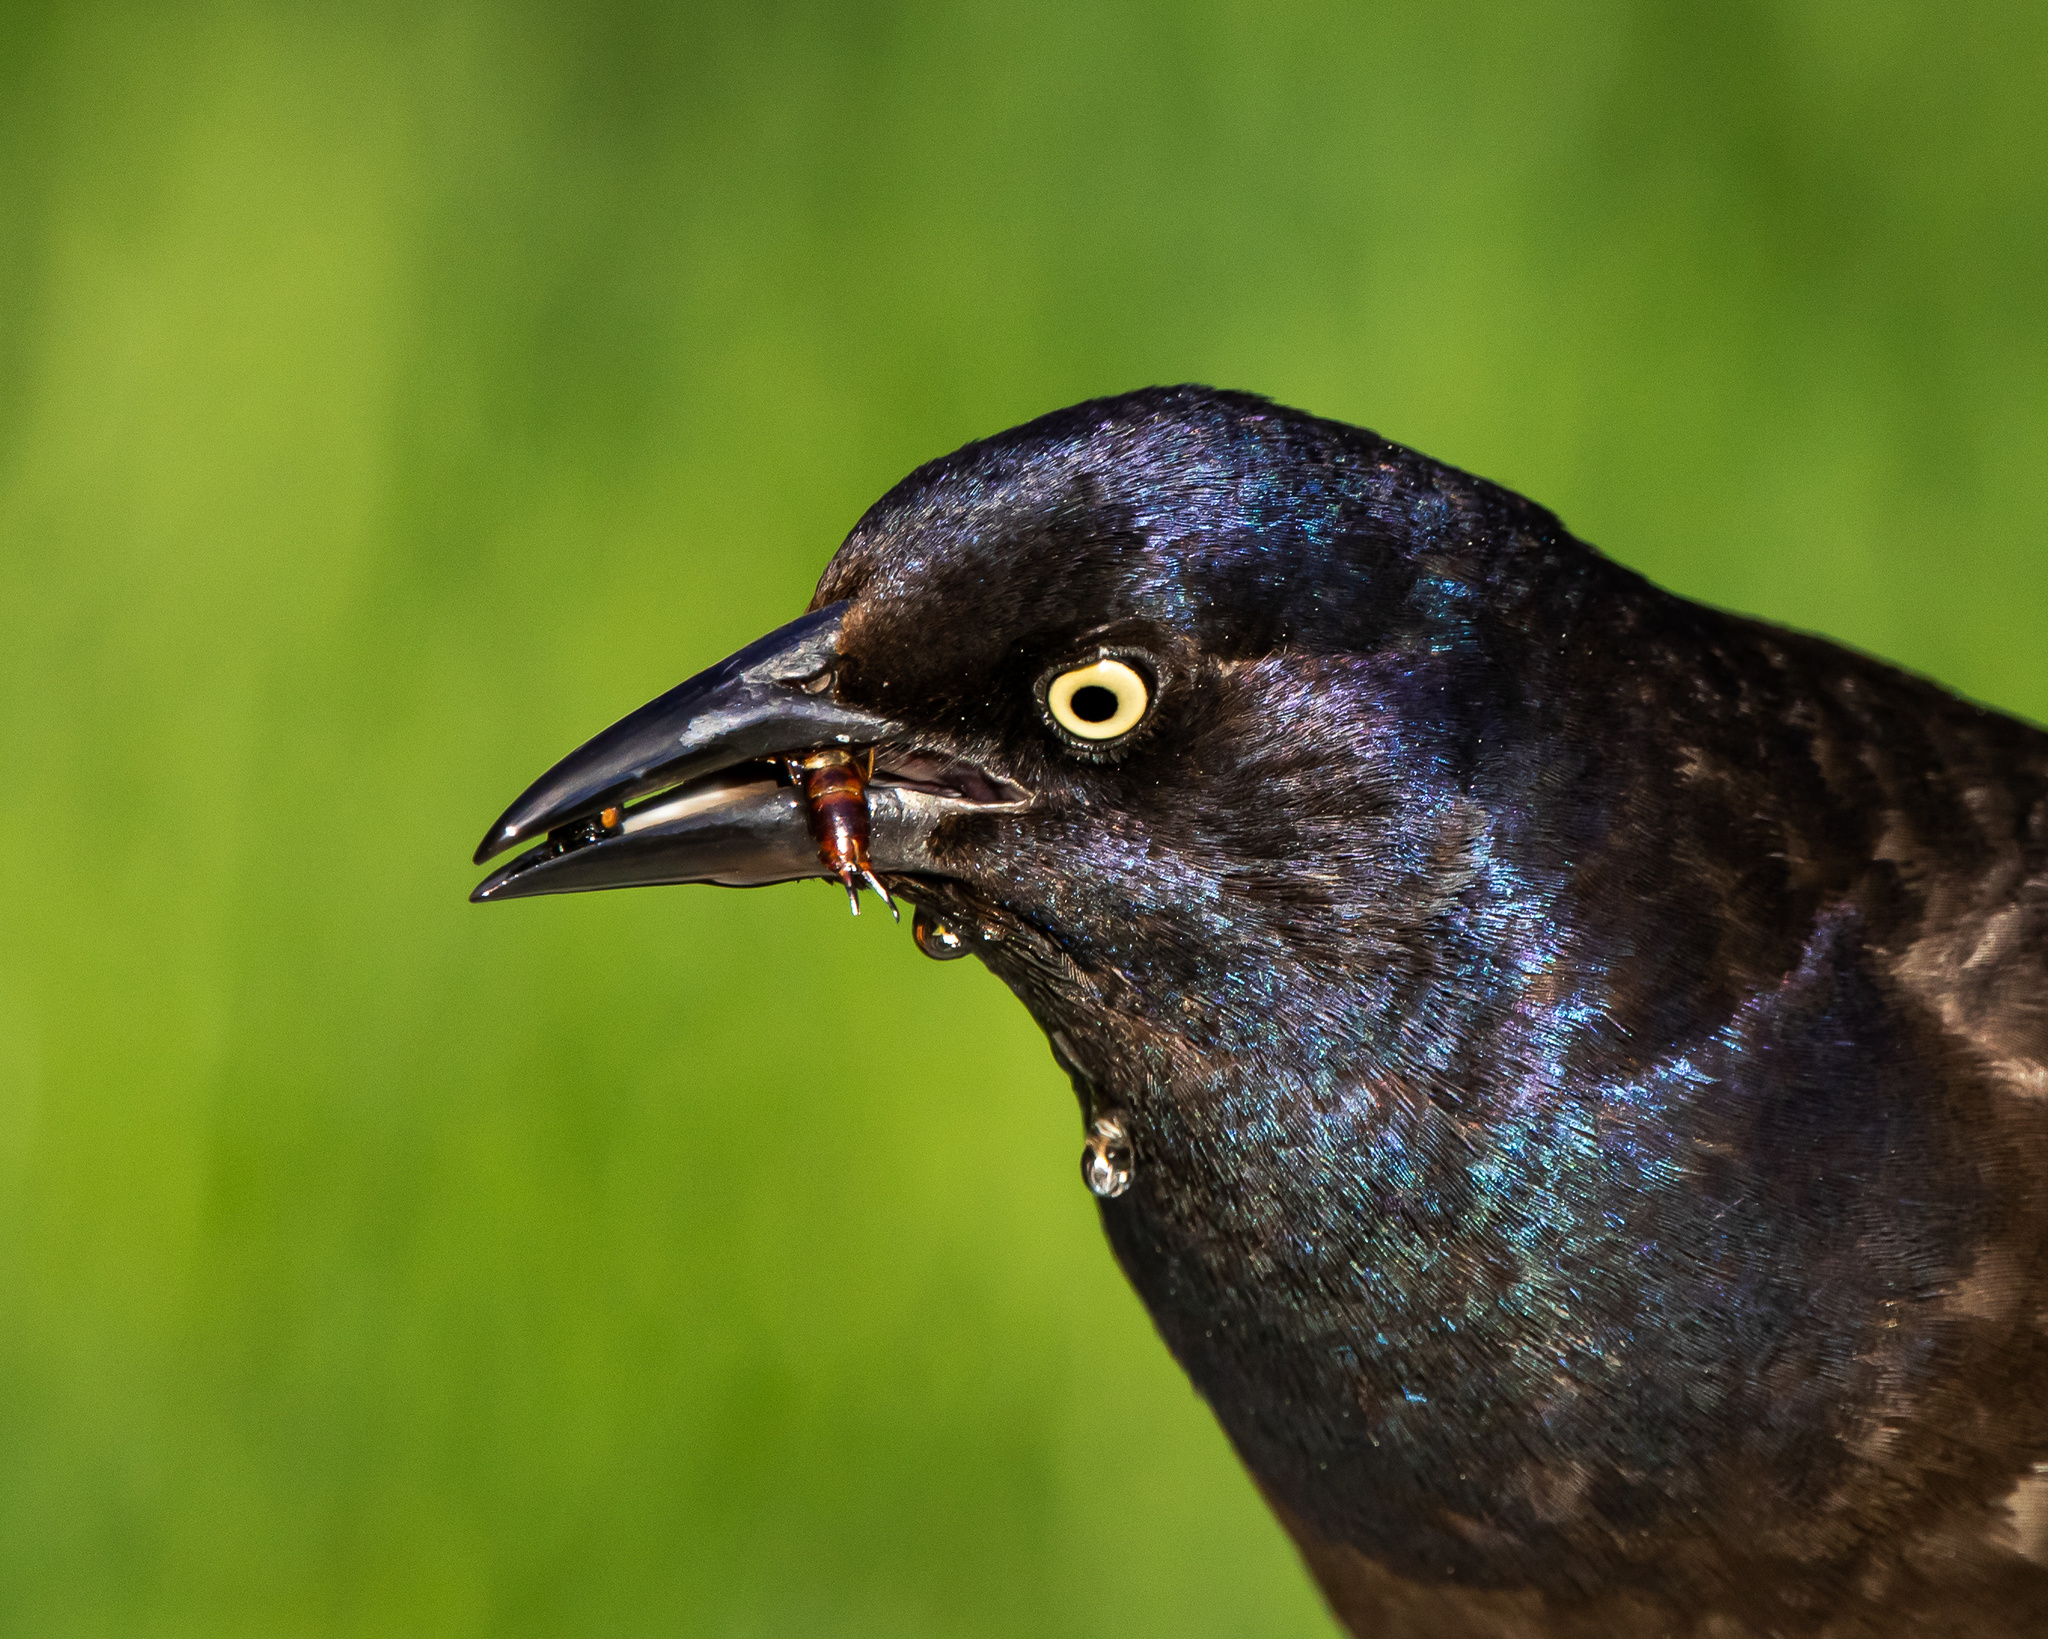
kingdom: Animalia
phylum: Chordata
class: Aves
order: Passeriformes
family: Icteridae
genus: Quiscalus
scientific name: Quiscalus quiscula
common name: Common grackle
